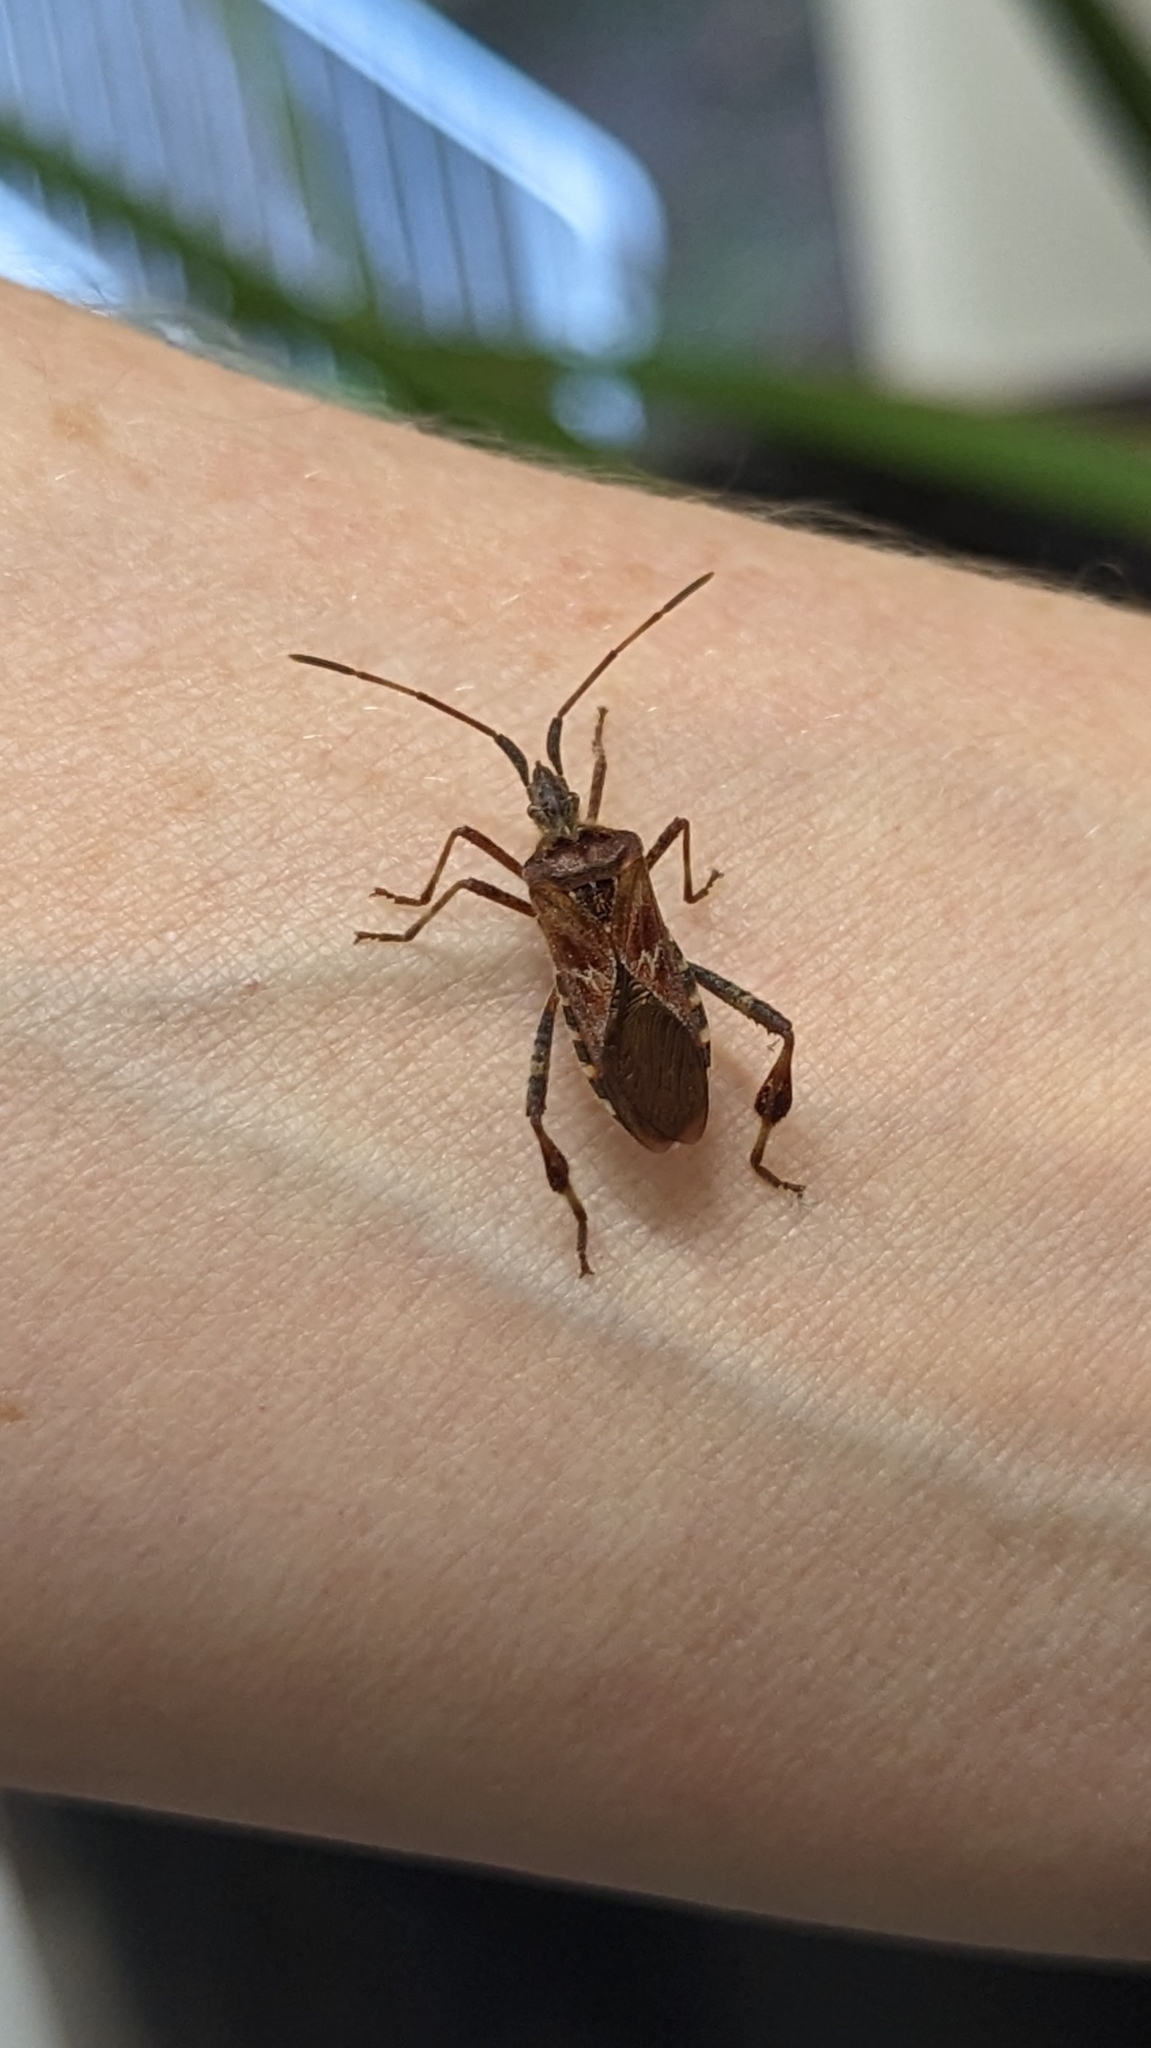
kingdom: Animalia
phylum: Arthropoda
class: Insecta
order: Hemiptera
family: Coreidae
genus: Leptoglossus
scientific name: Leptoglossus occidentalis
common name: Western conifer-seed bug
